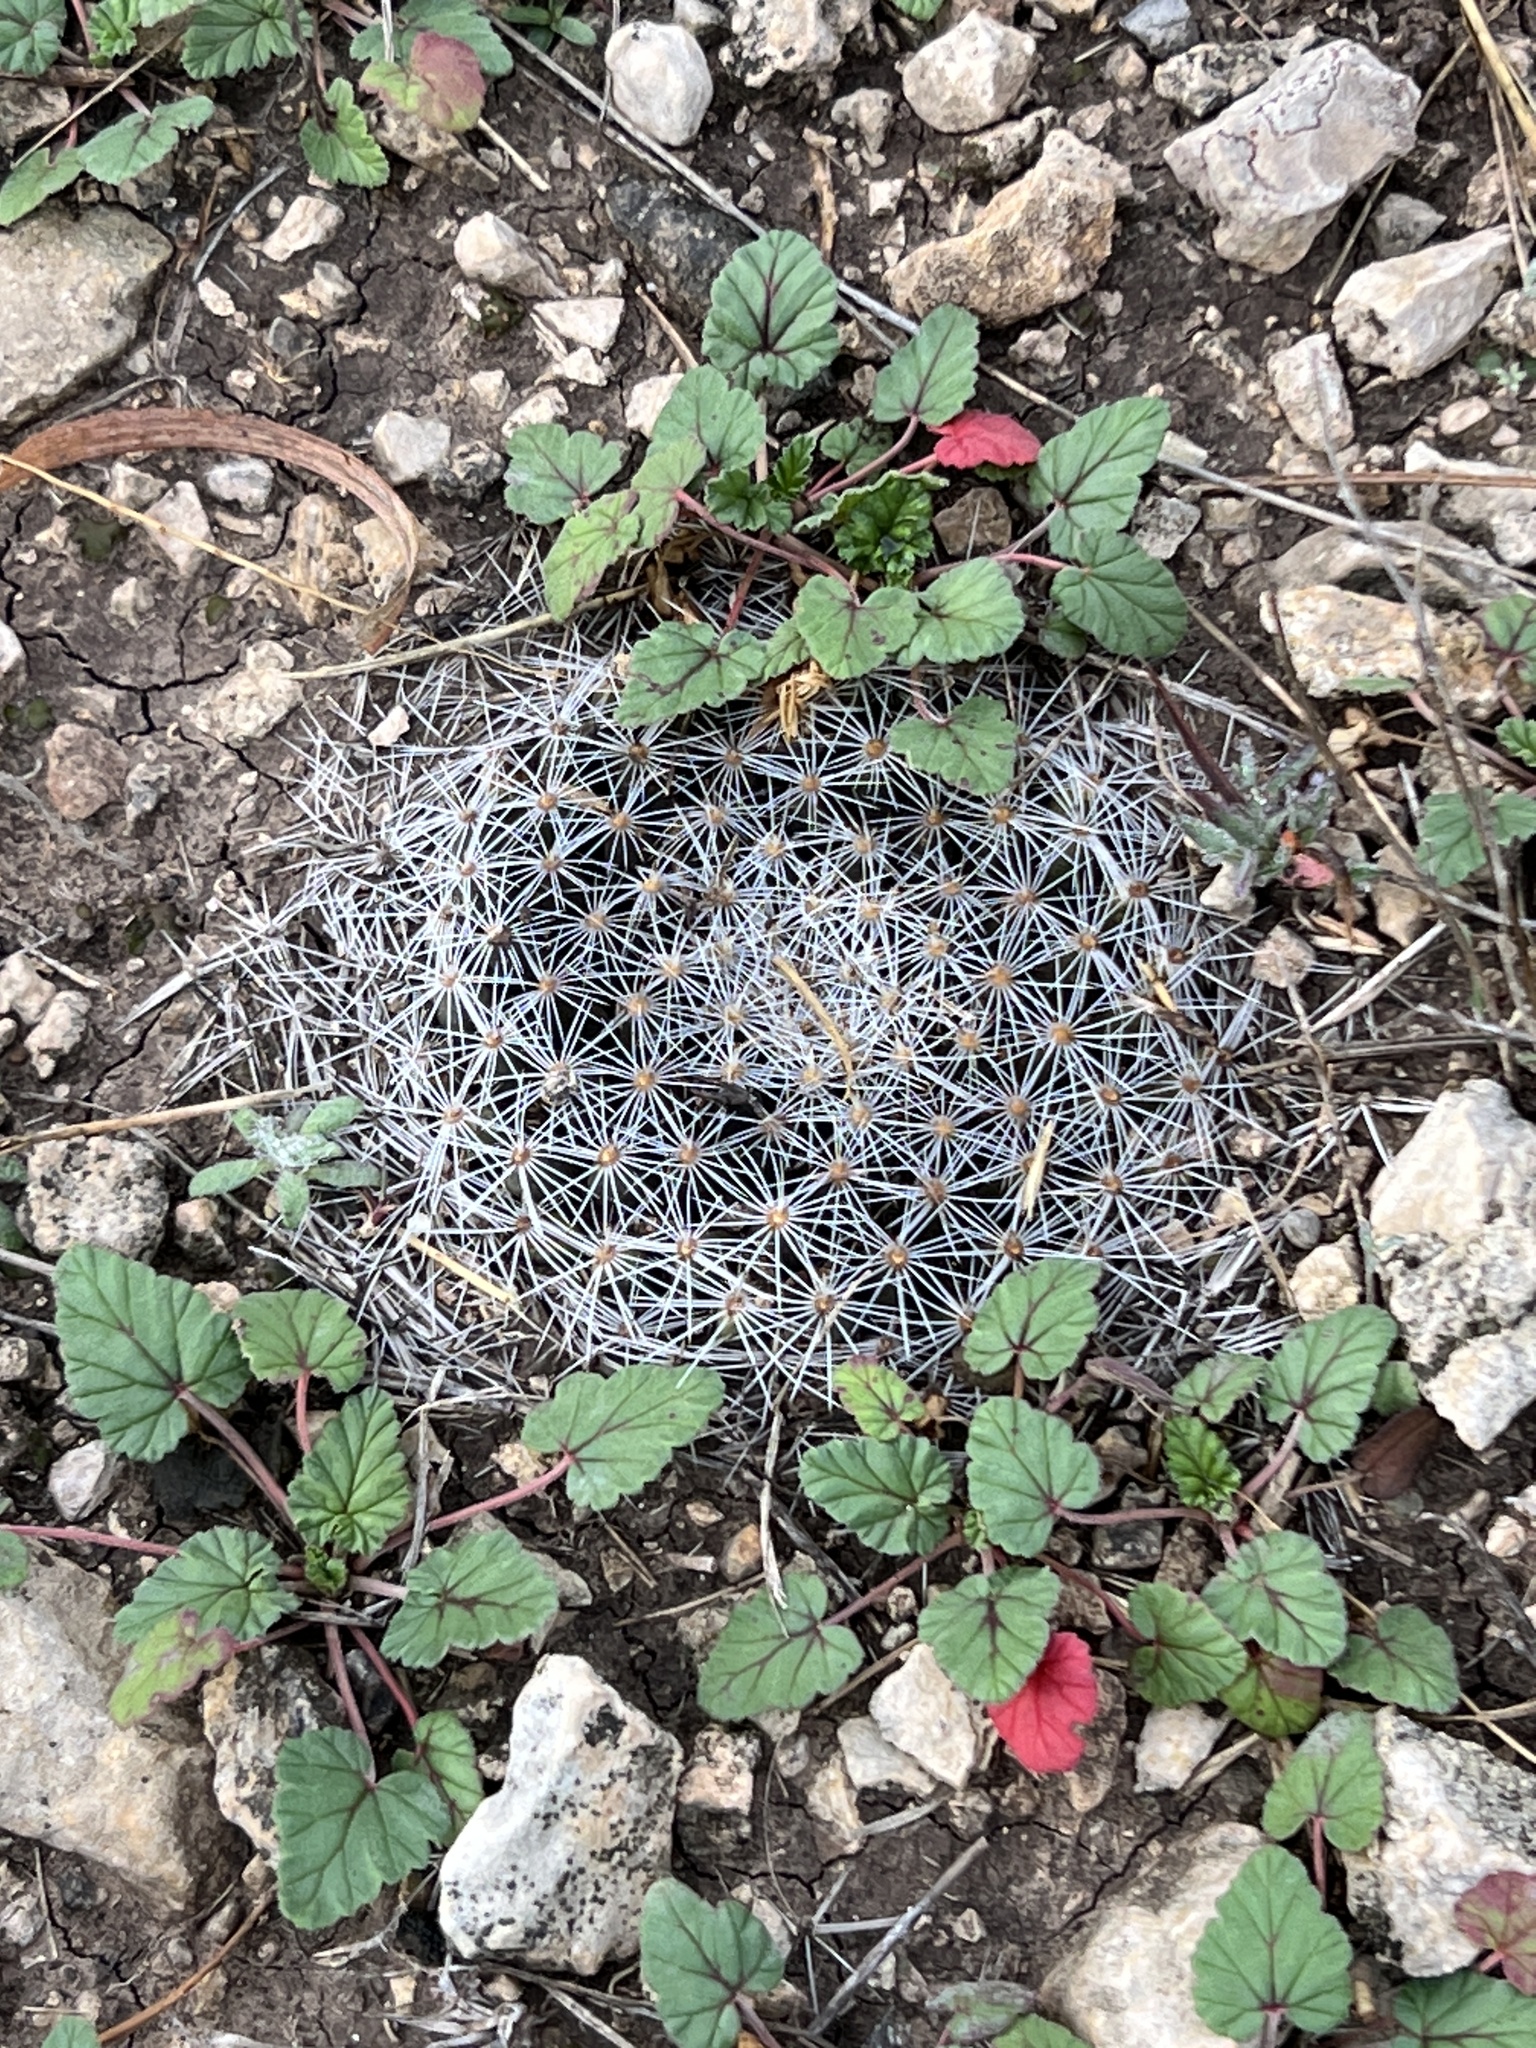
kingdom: Plantae
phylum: Tracheophyta
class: Magnoliopsida
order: Caryophyllales
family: Cactaceae
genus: Mammillaria
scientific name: Mammillaria heyderi
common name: Little nipple cactus
